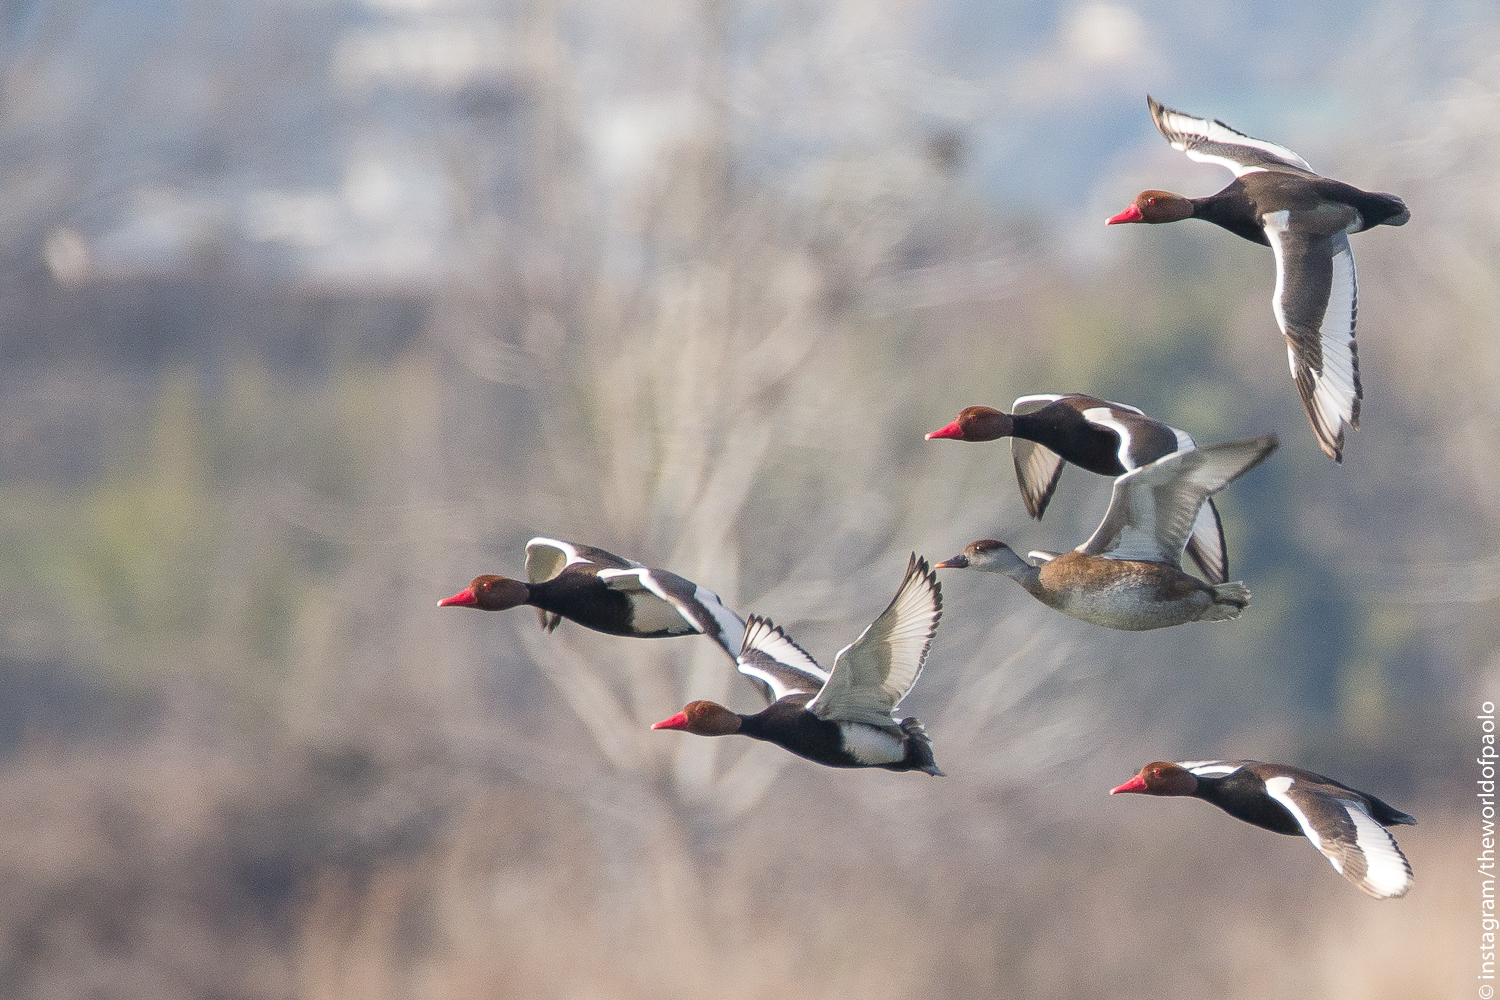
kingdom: Animalia
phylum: Chordata
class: Aves
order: Anseriformes
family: Anatidae
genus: Netta
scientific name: Netta rufina
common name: Red-crested pochard
